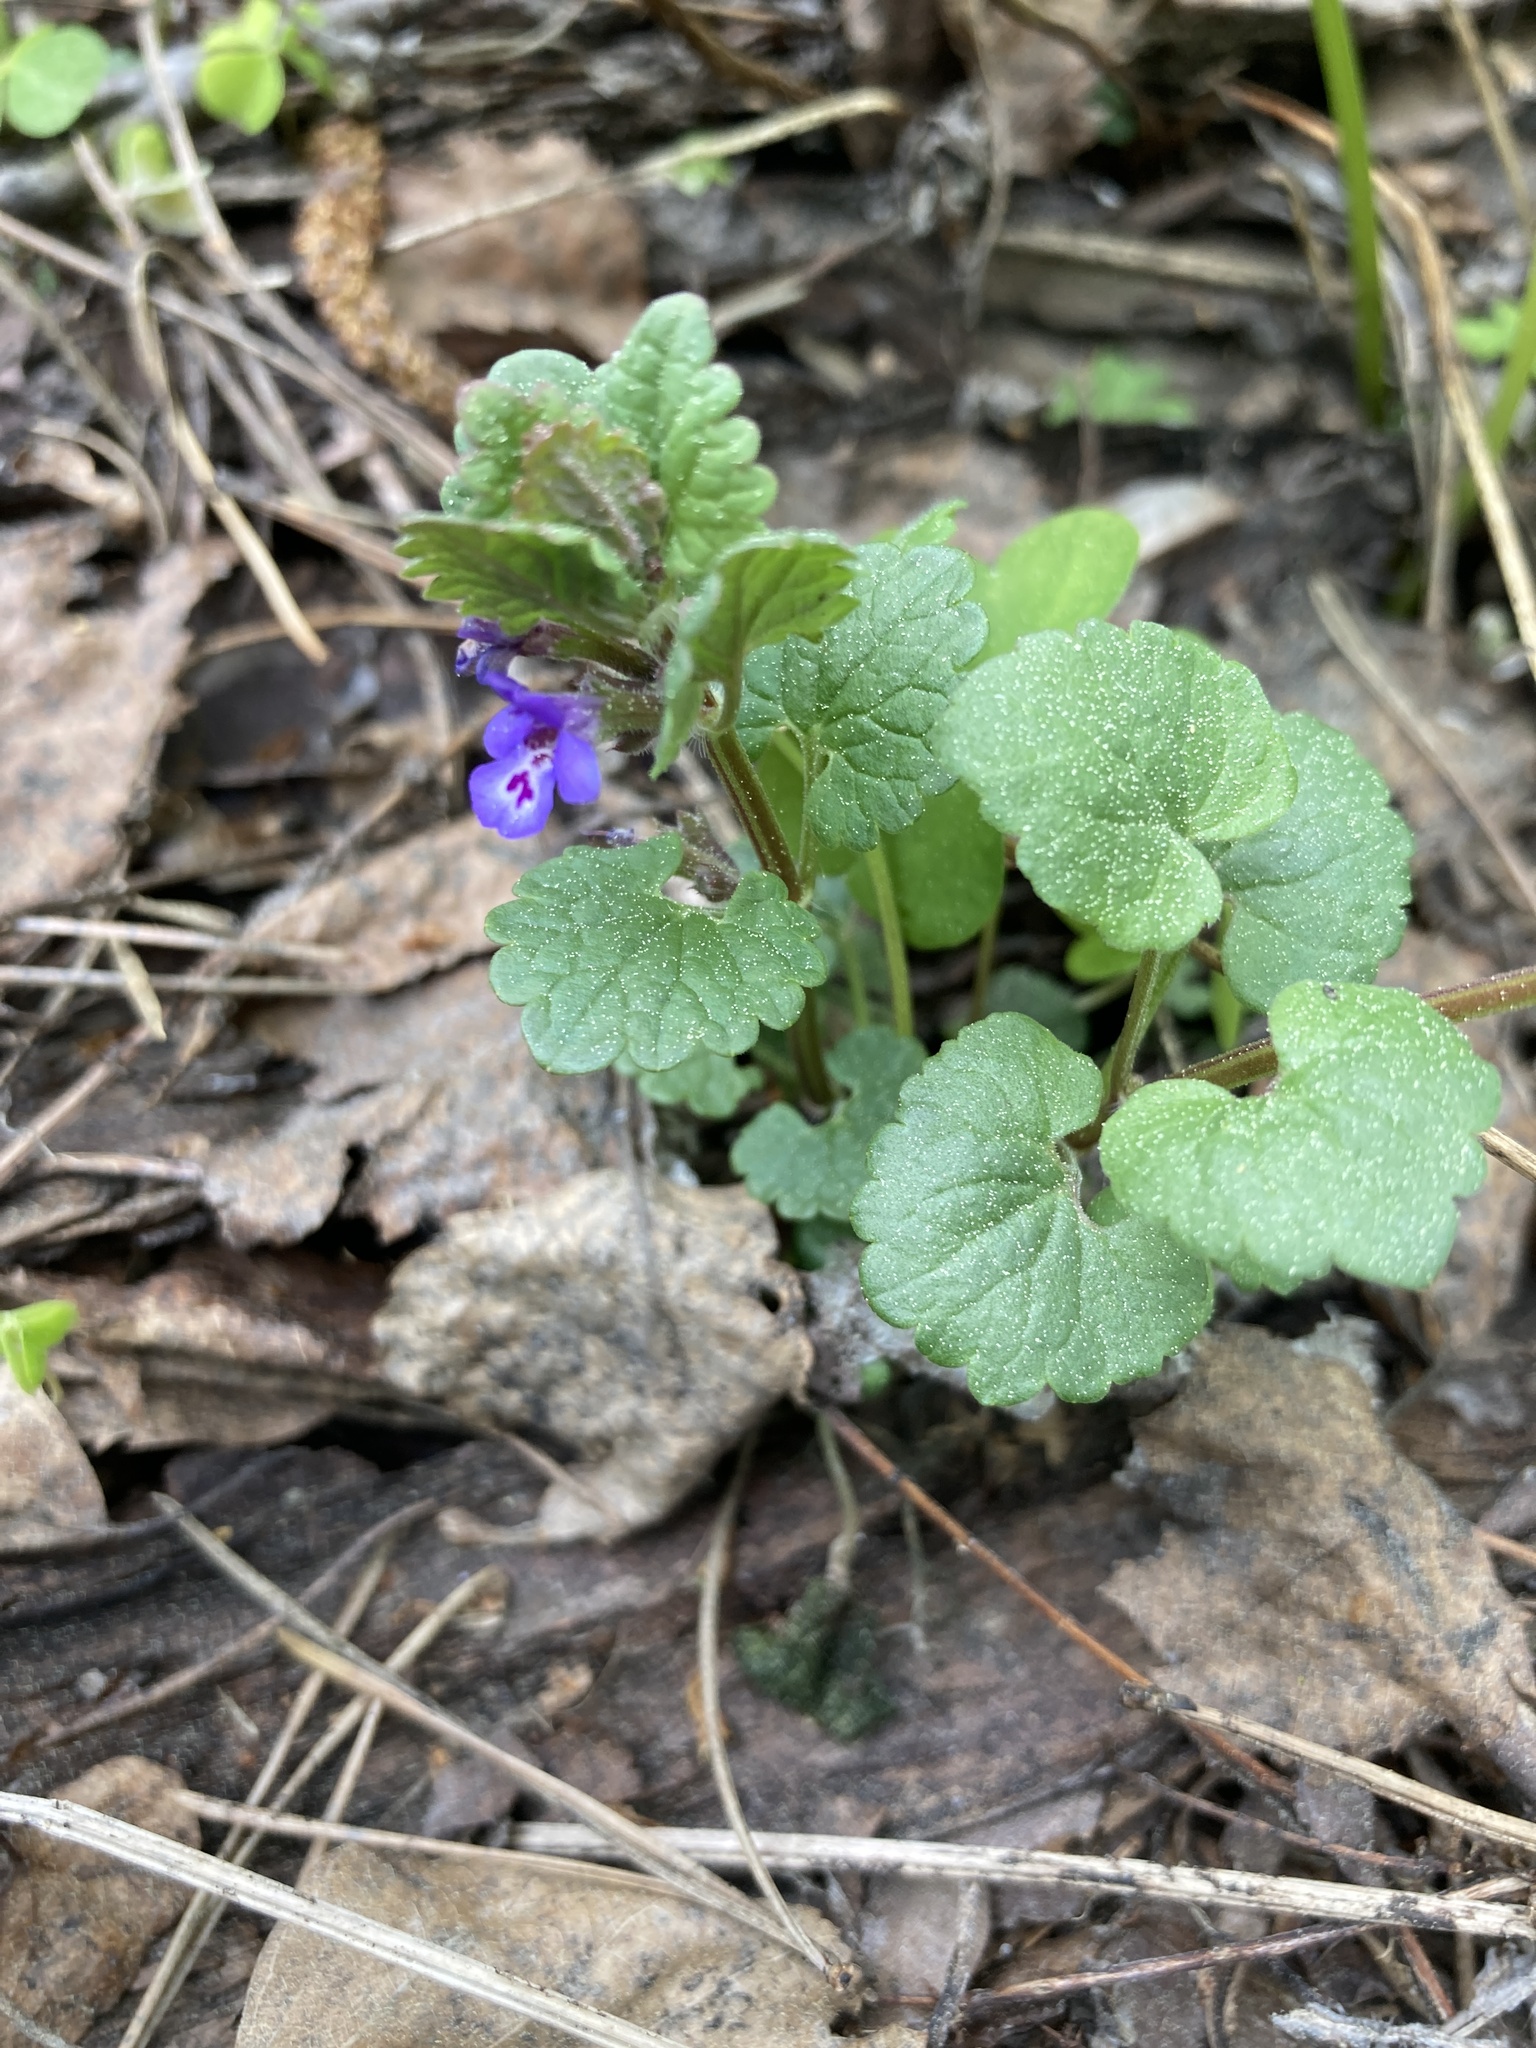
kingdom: Plantae
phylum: Tracheophyta
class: Magnoliopsida
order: Lamiales
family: Lamiaceae
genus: Glechoma
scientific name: Glechoma hederacea
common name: Ground ivy
